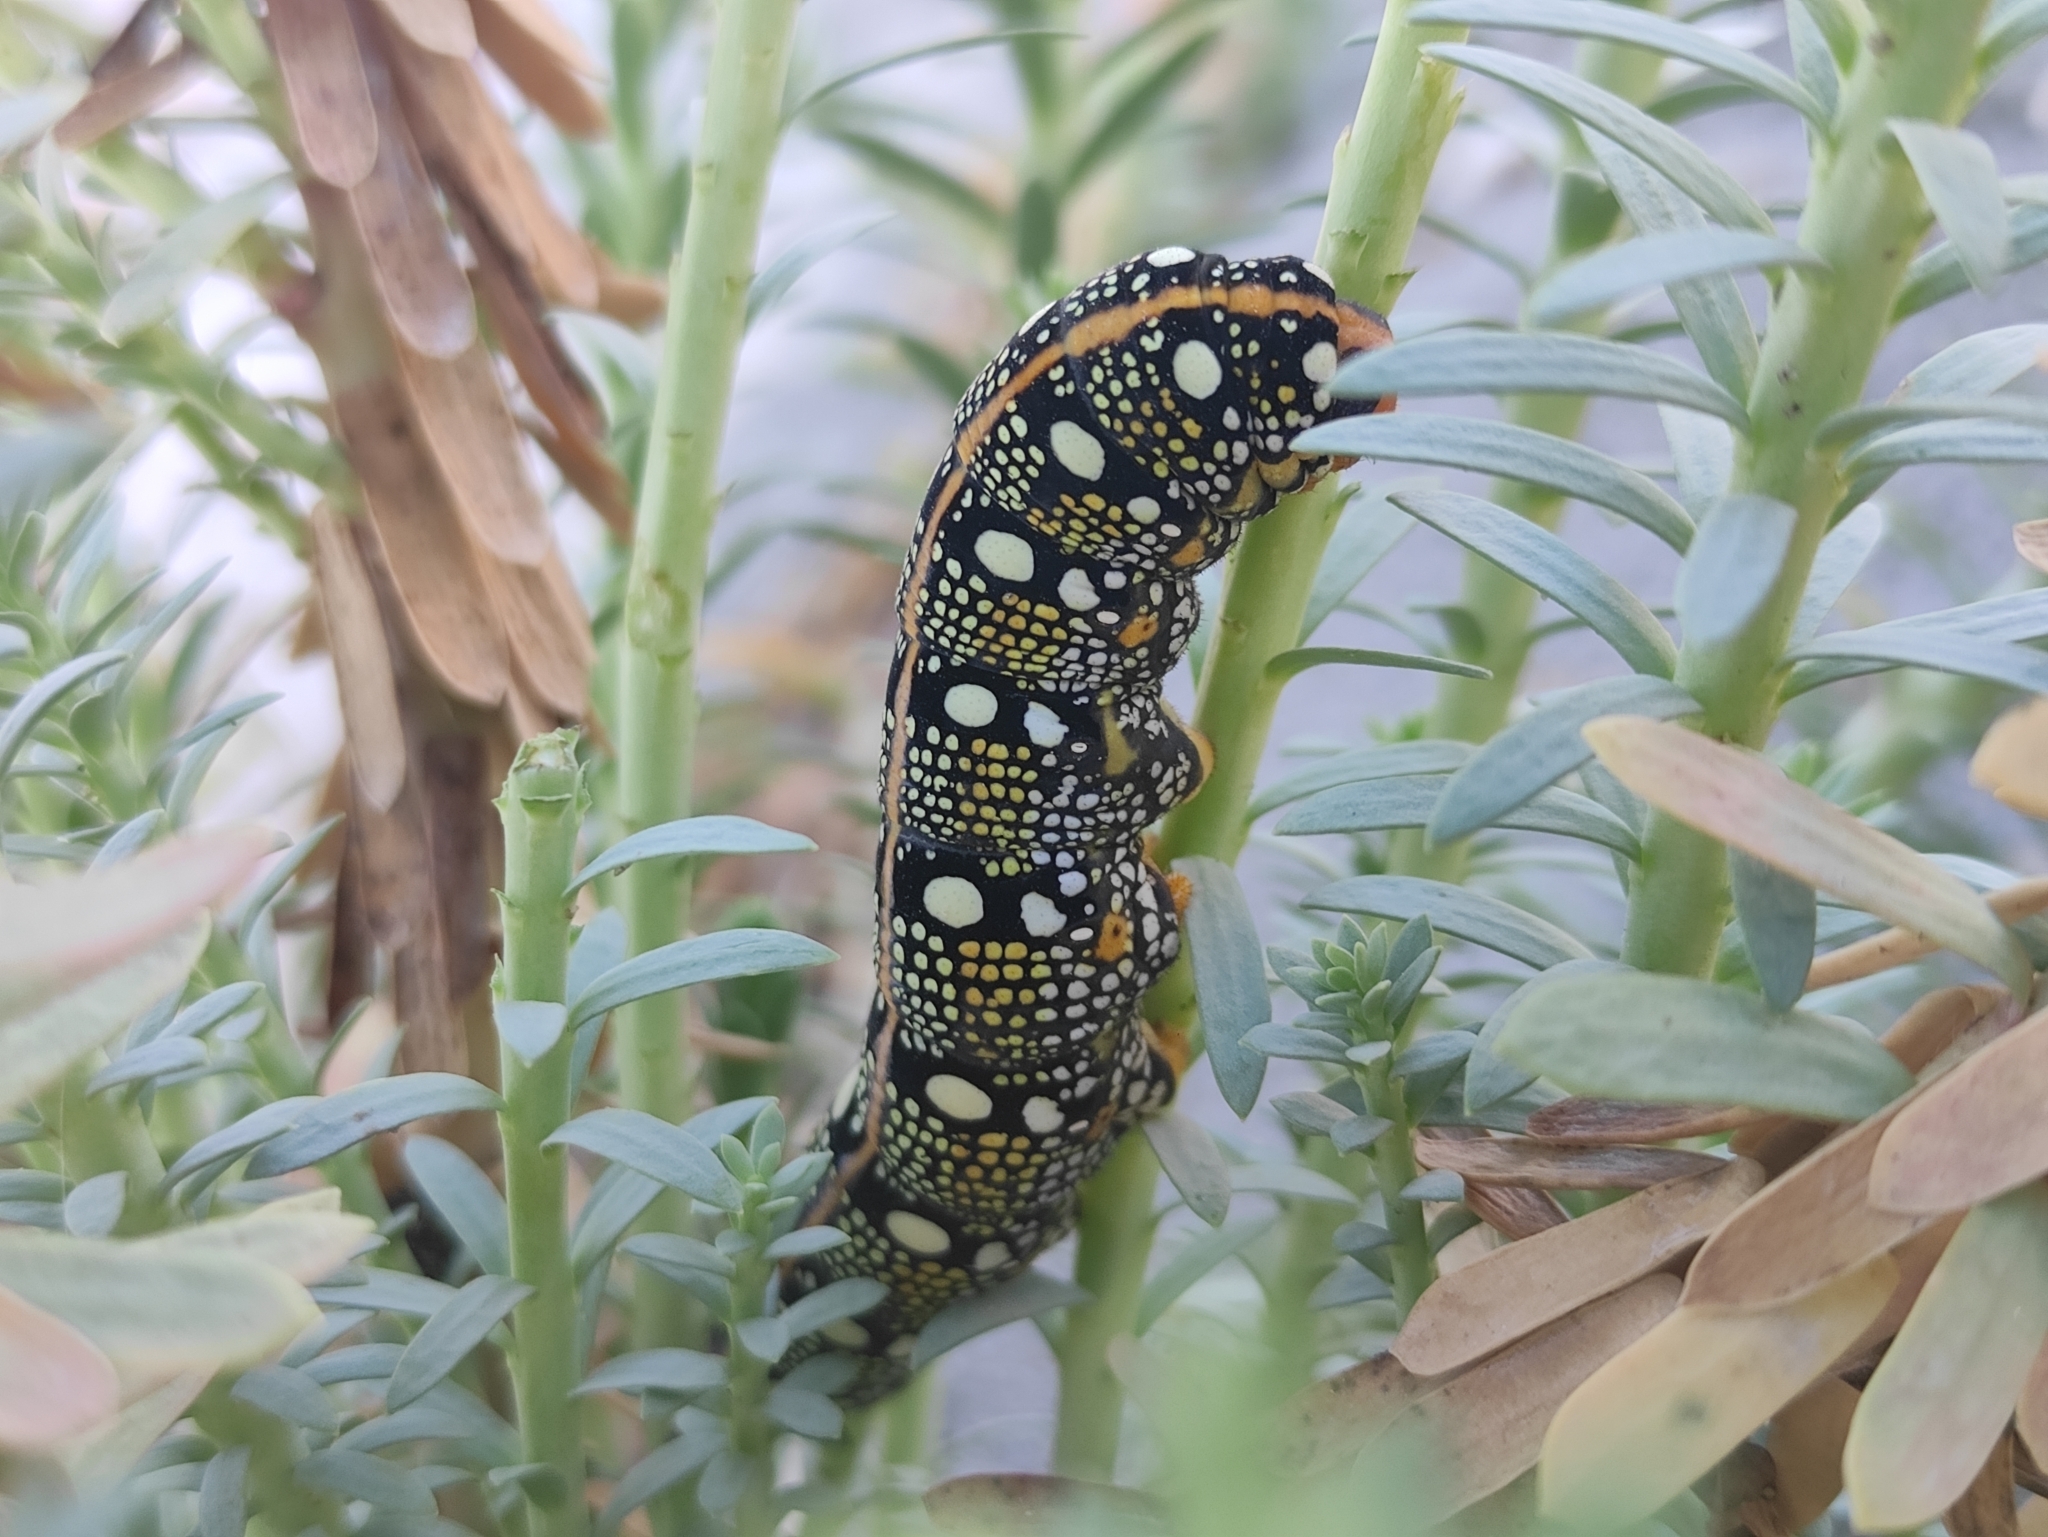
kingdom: Animalia
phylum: Arthropoda
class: Insecta
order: Lepidoptera
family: Sphingidae
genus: Hyles
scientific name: Hyles euphorbiae
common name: Spurge hawk-moth
